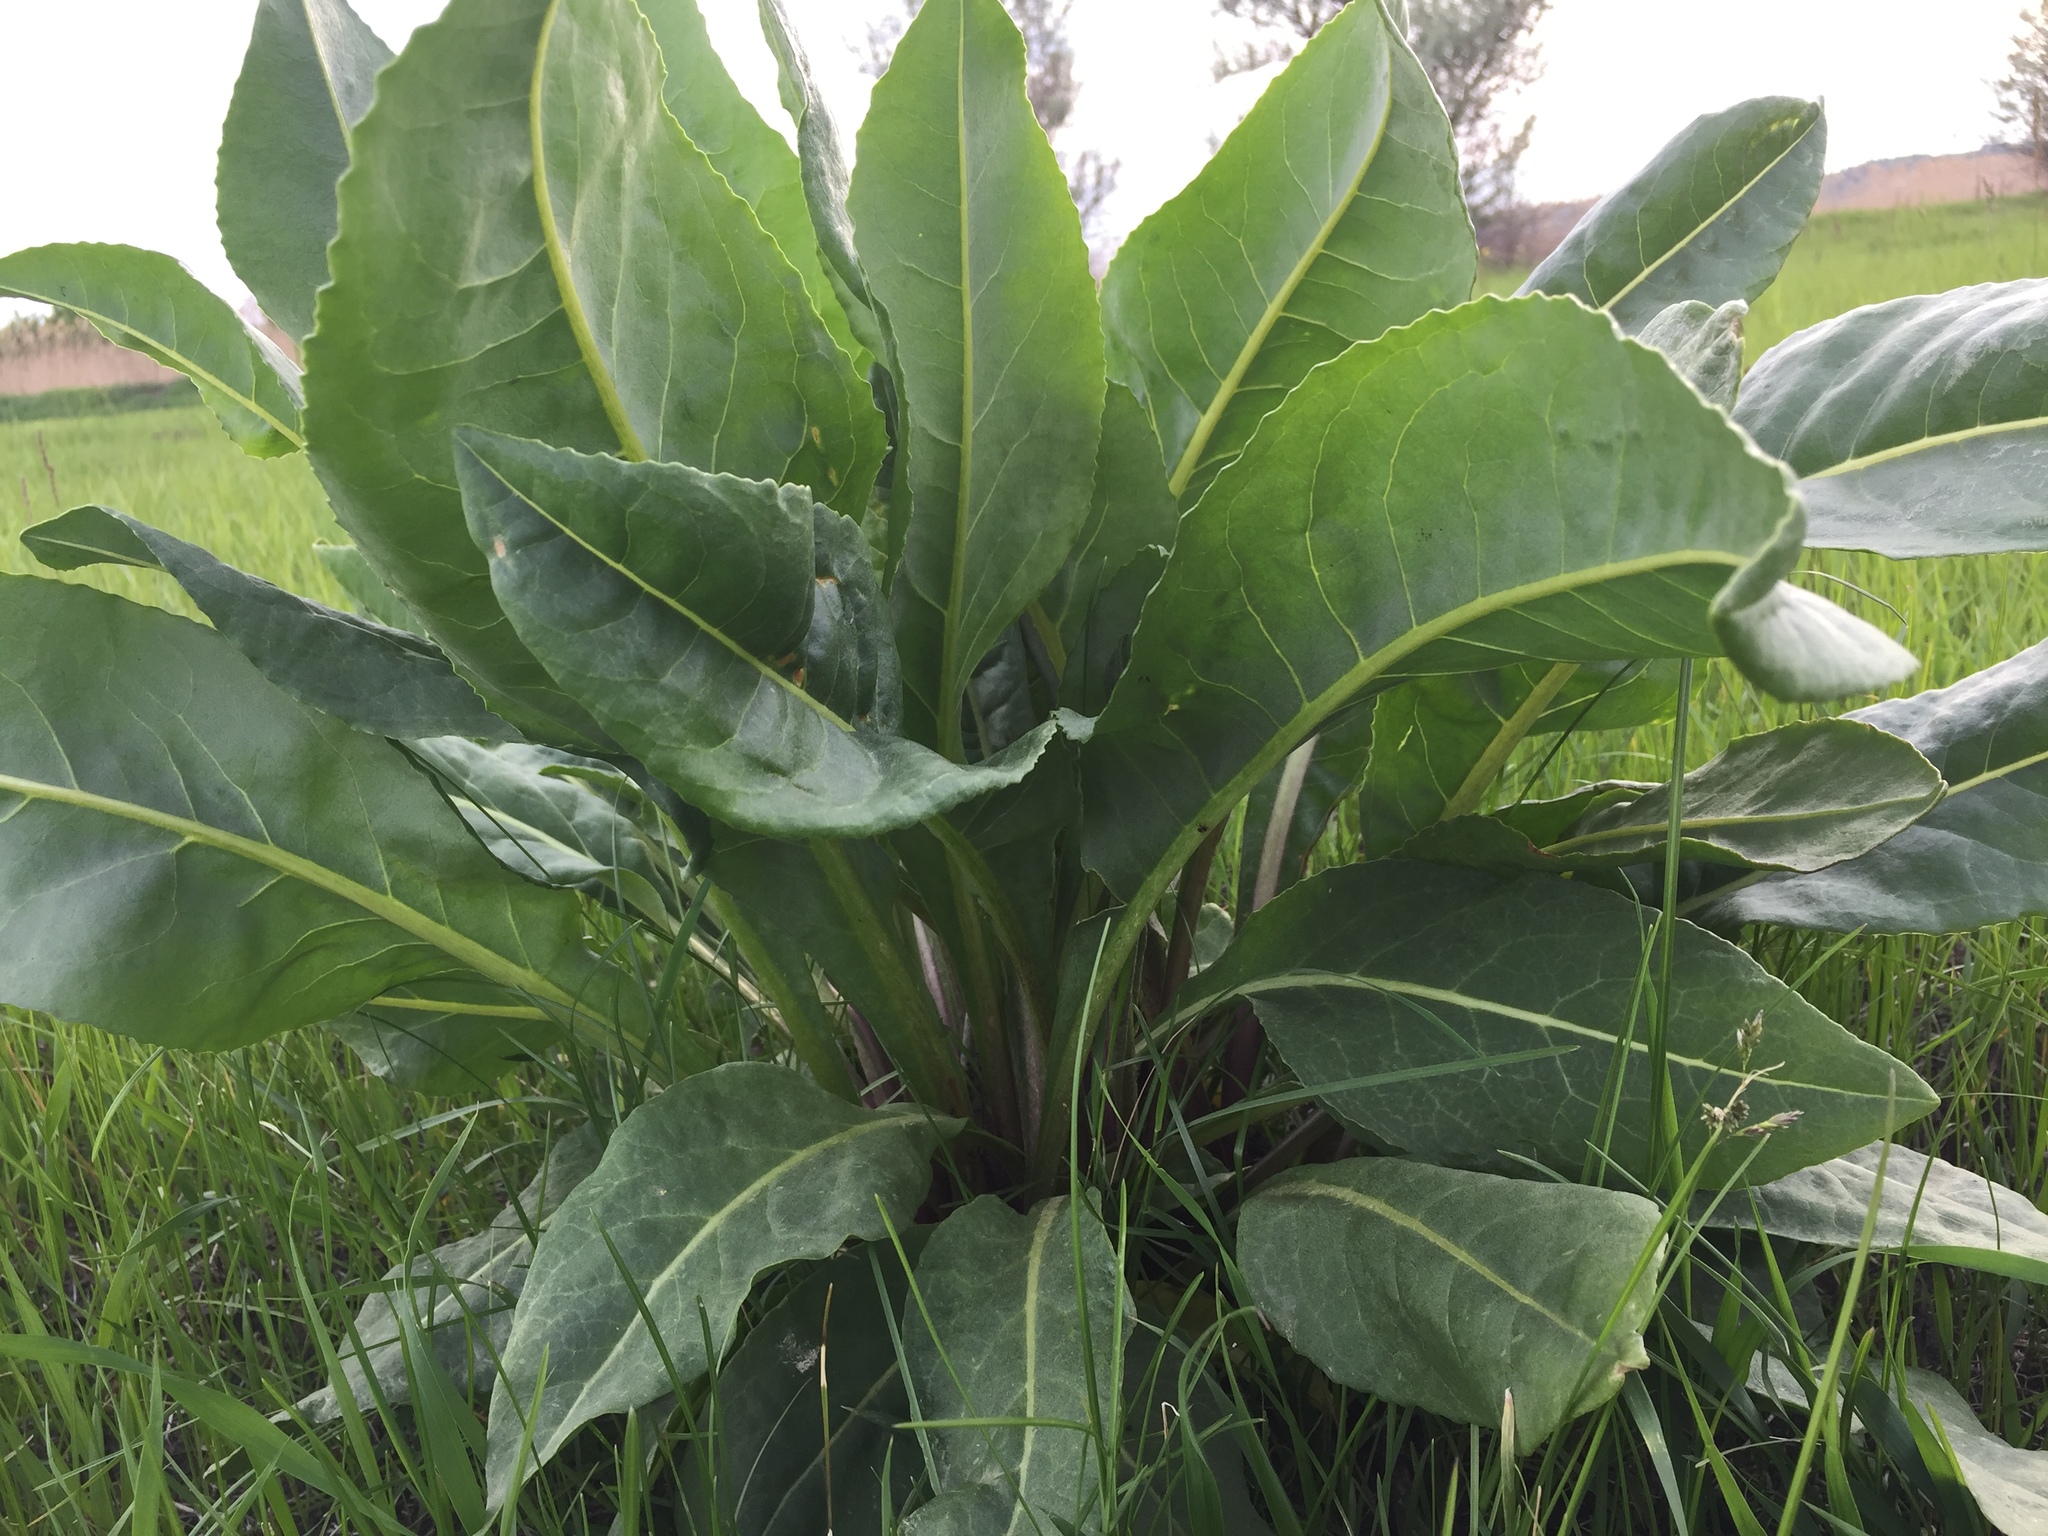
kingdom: Plantae
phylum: Tracheophyta
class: Magnoliopsida
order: Asterales
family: Asteraceae
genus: Senecio
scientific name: Senecio doria
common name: Golden ragwort
